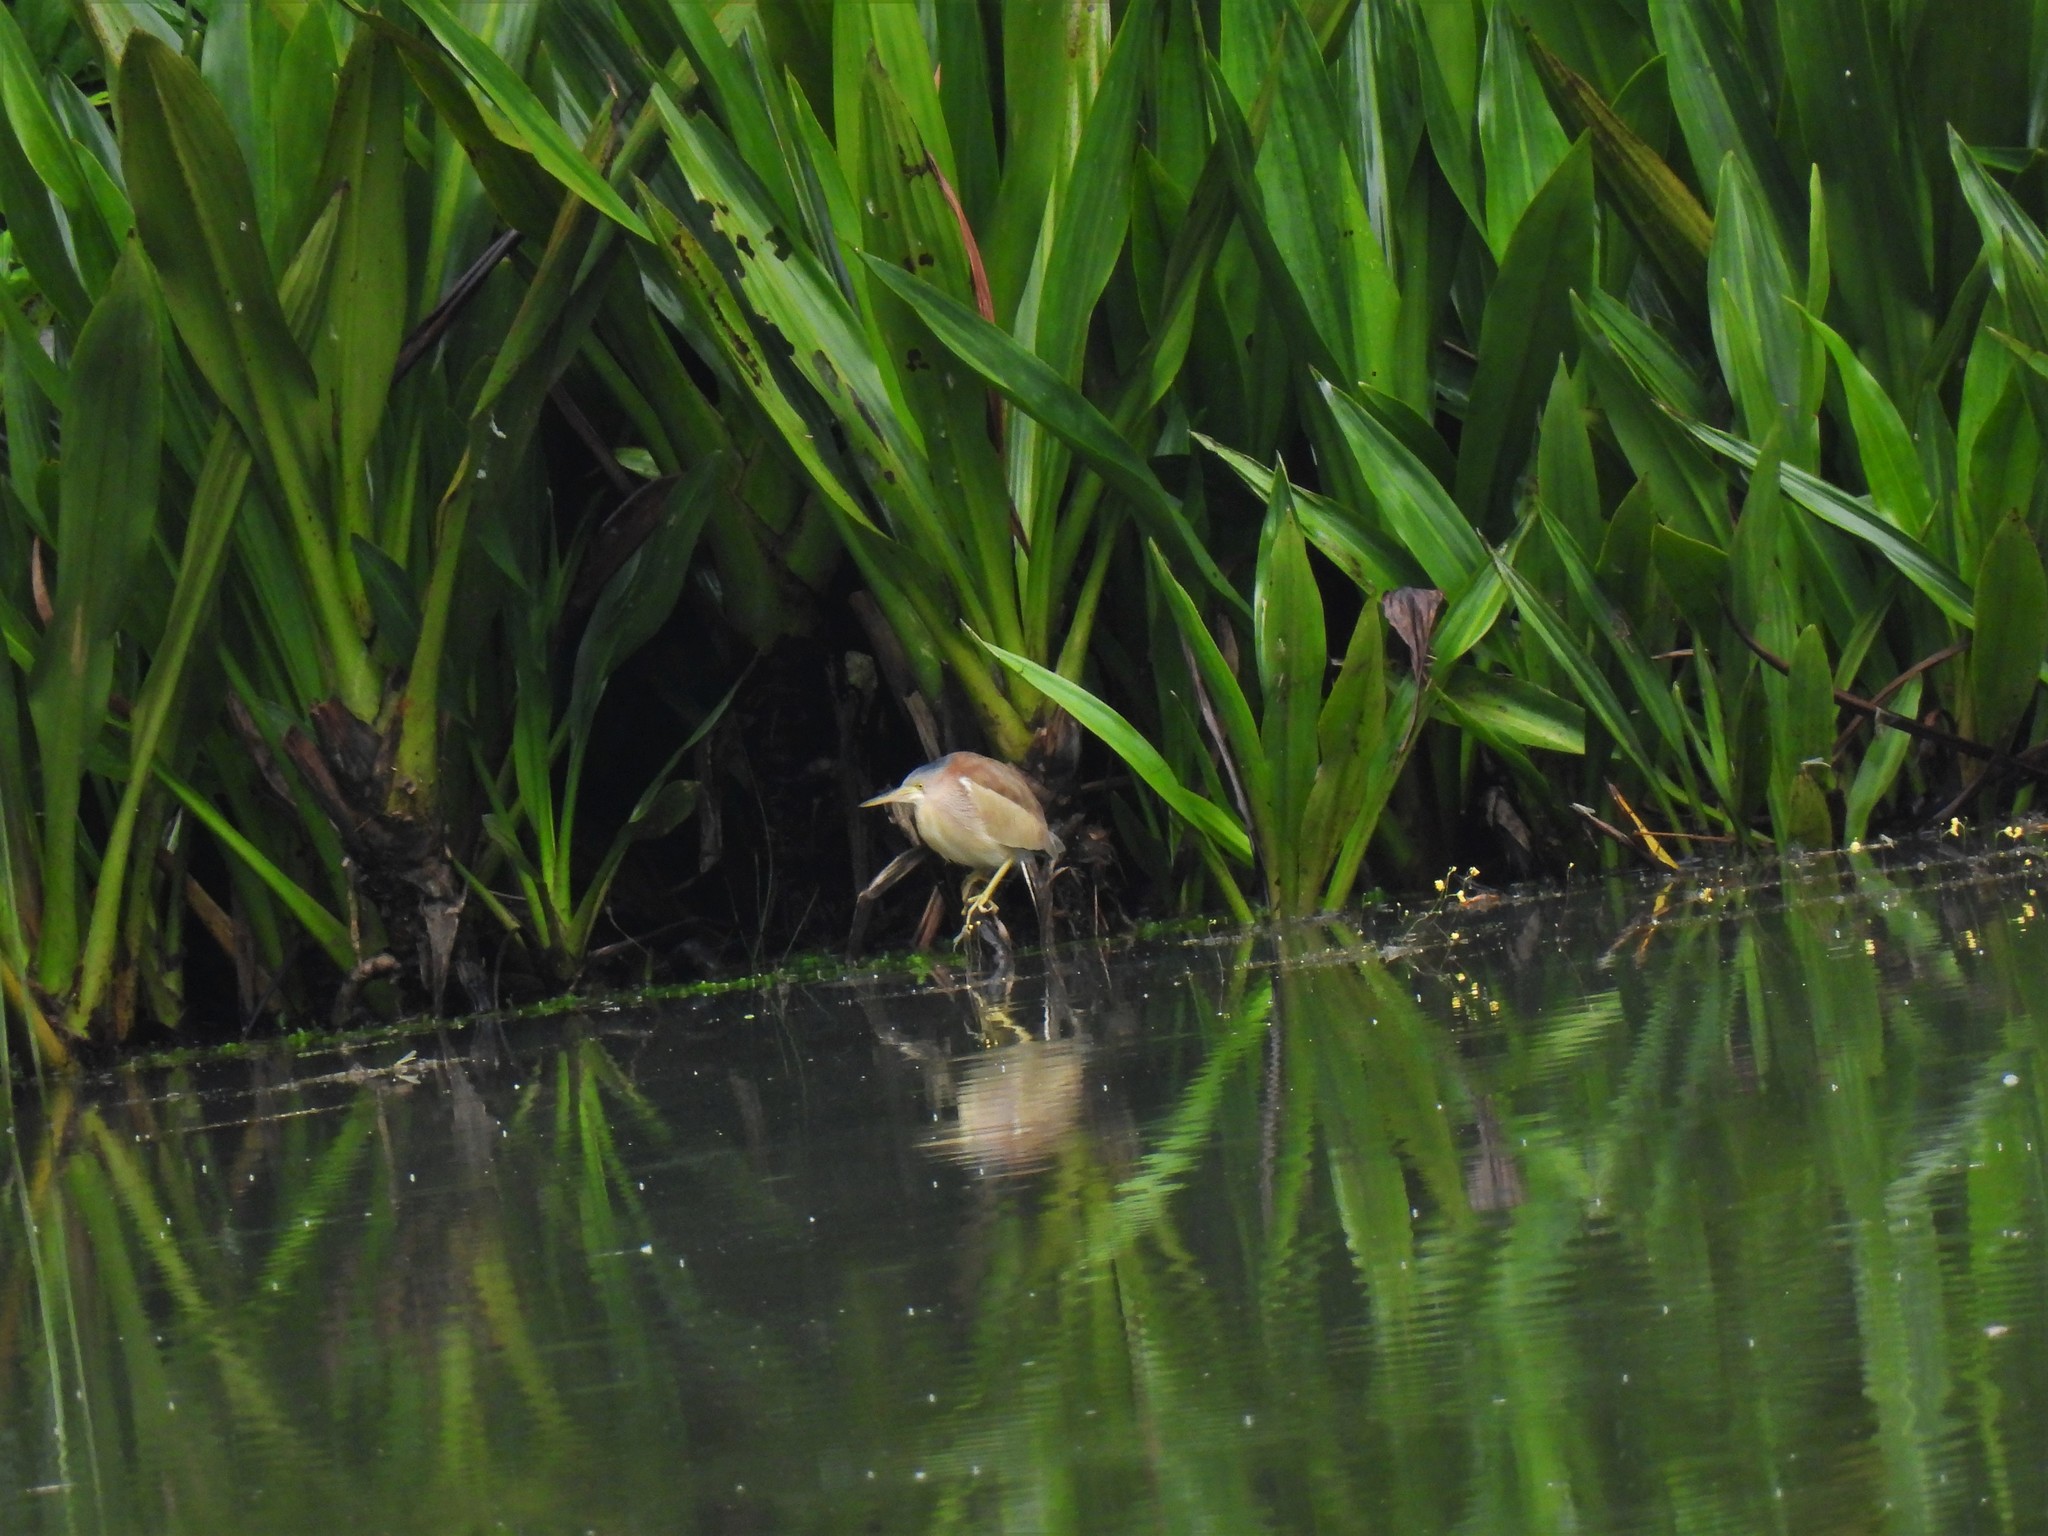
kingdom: Animalia
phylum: Chordata
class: Aves
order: Pelecaniformes
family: Ardeidae
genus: Ixobrychus
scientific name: Ixobrychus sinensis
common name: Yellow bittern
